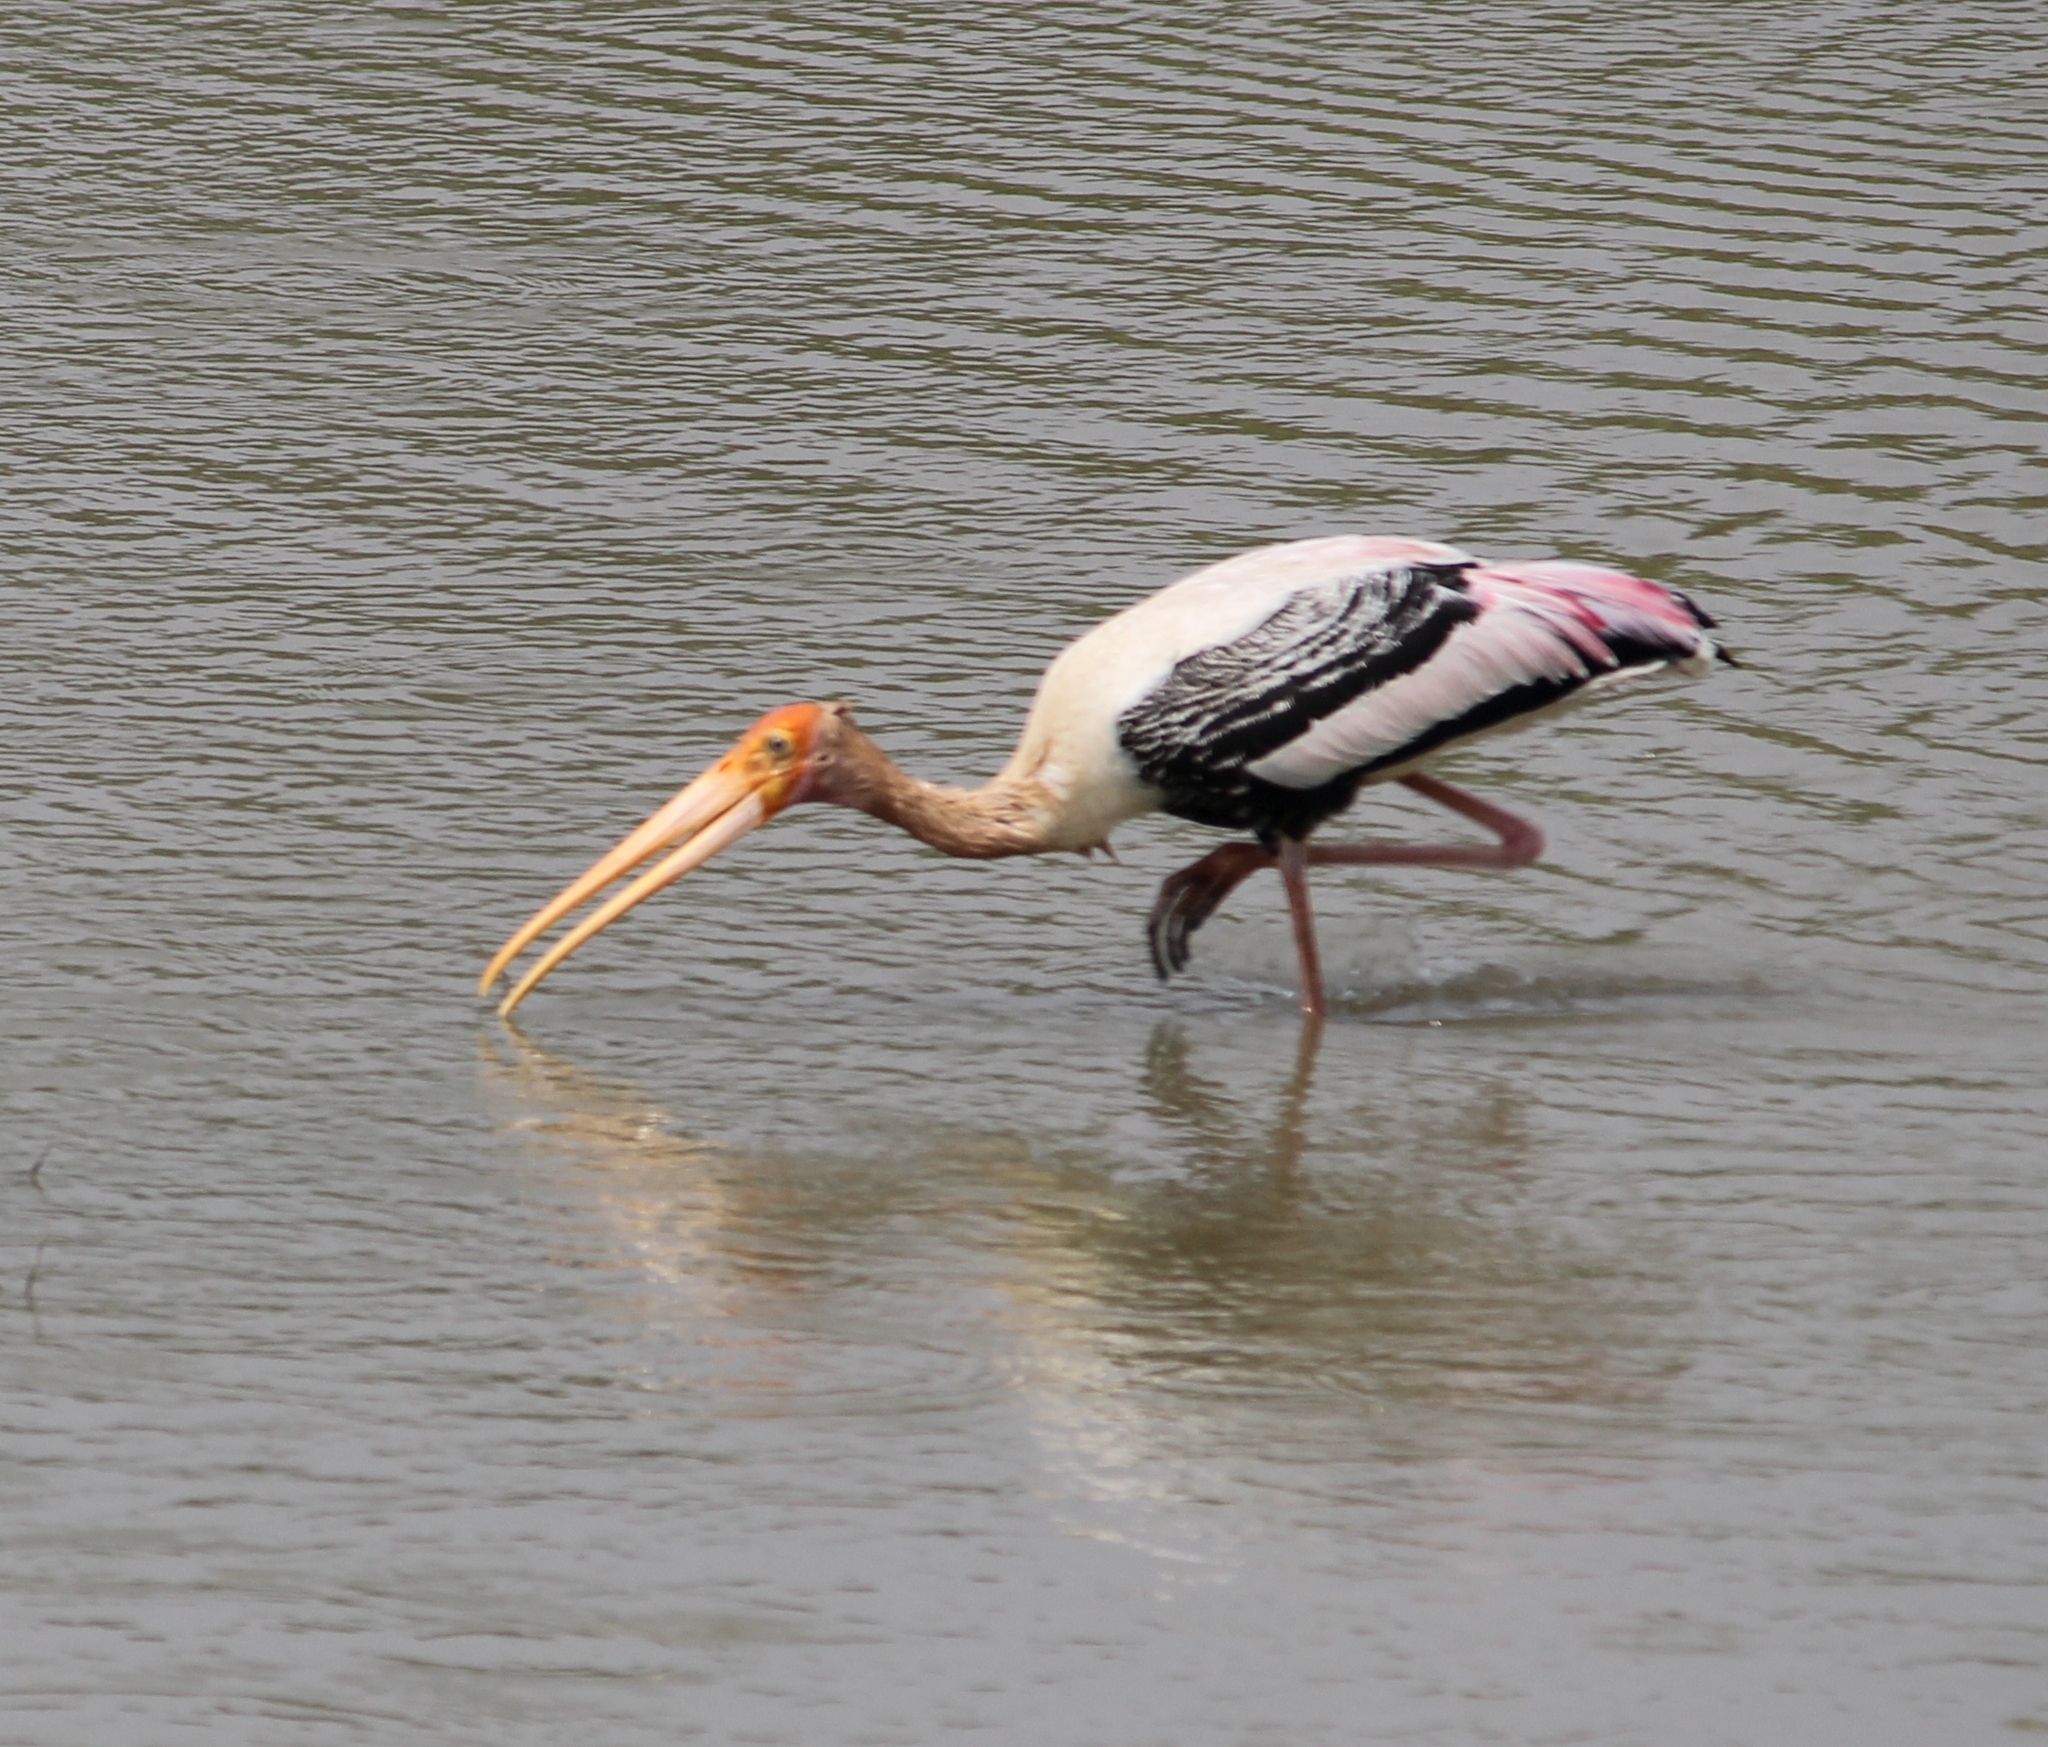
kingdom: Animalia
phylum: Chordata
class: Aves
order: Ciconiiformes
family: Ciconiidae
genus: Mycteria
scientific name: Mycteria leucocephala
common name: Painted stork
